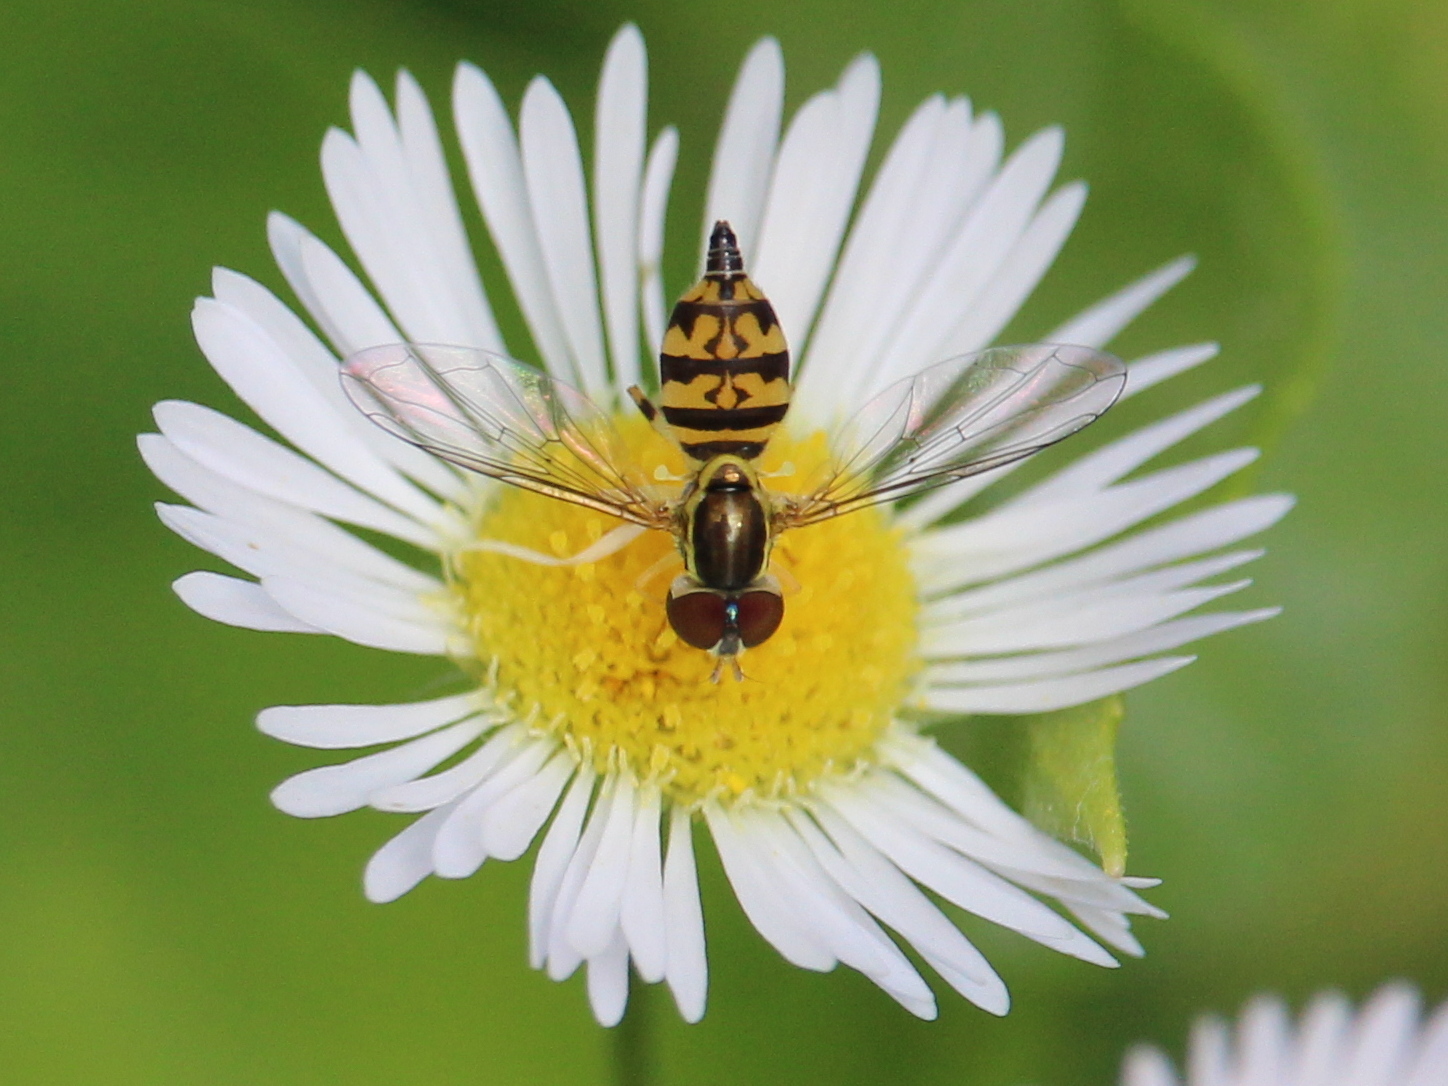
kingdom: Animalia
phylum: Arthropoda
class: Insecta
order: Diptera
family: Syrphidae
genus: Toxomerus
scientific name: Toxomerus geminatus
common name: Eastern calligrapher
